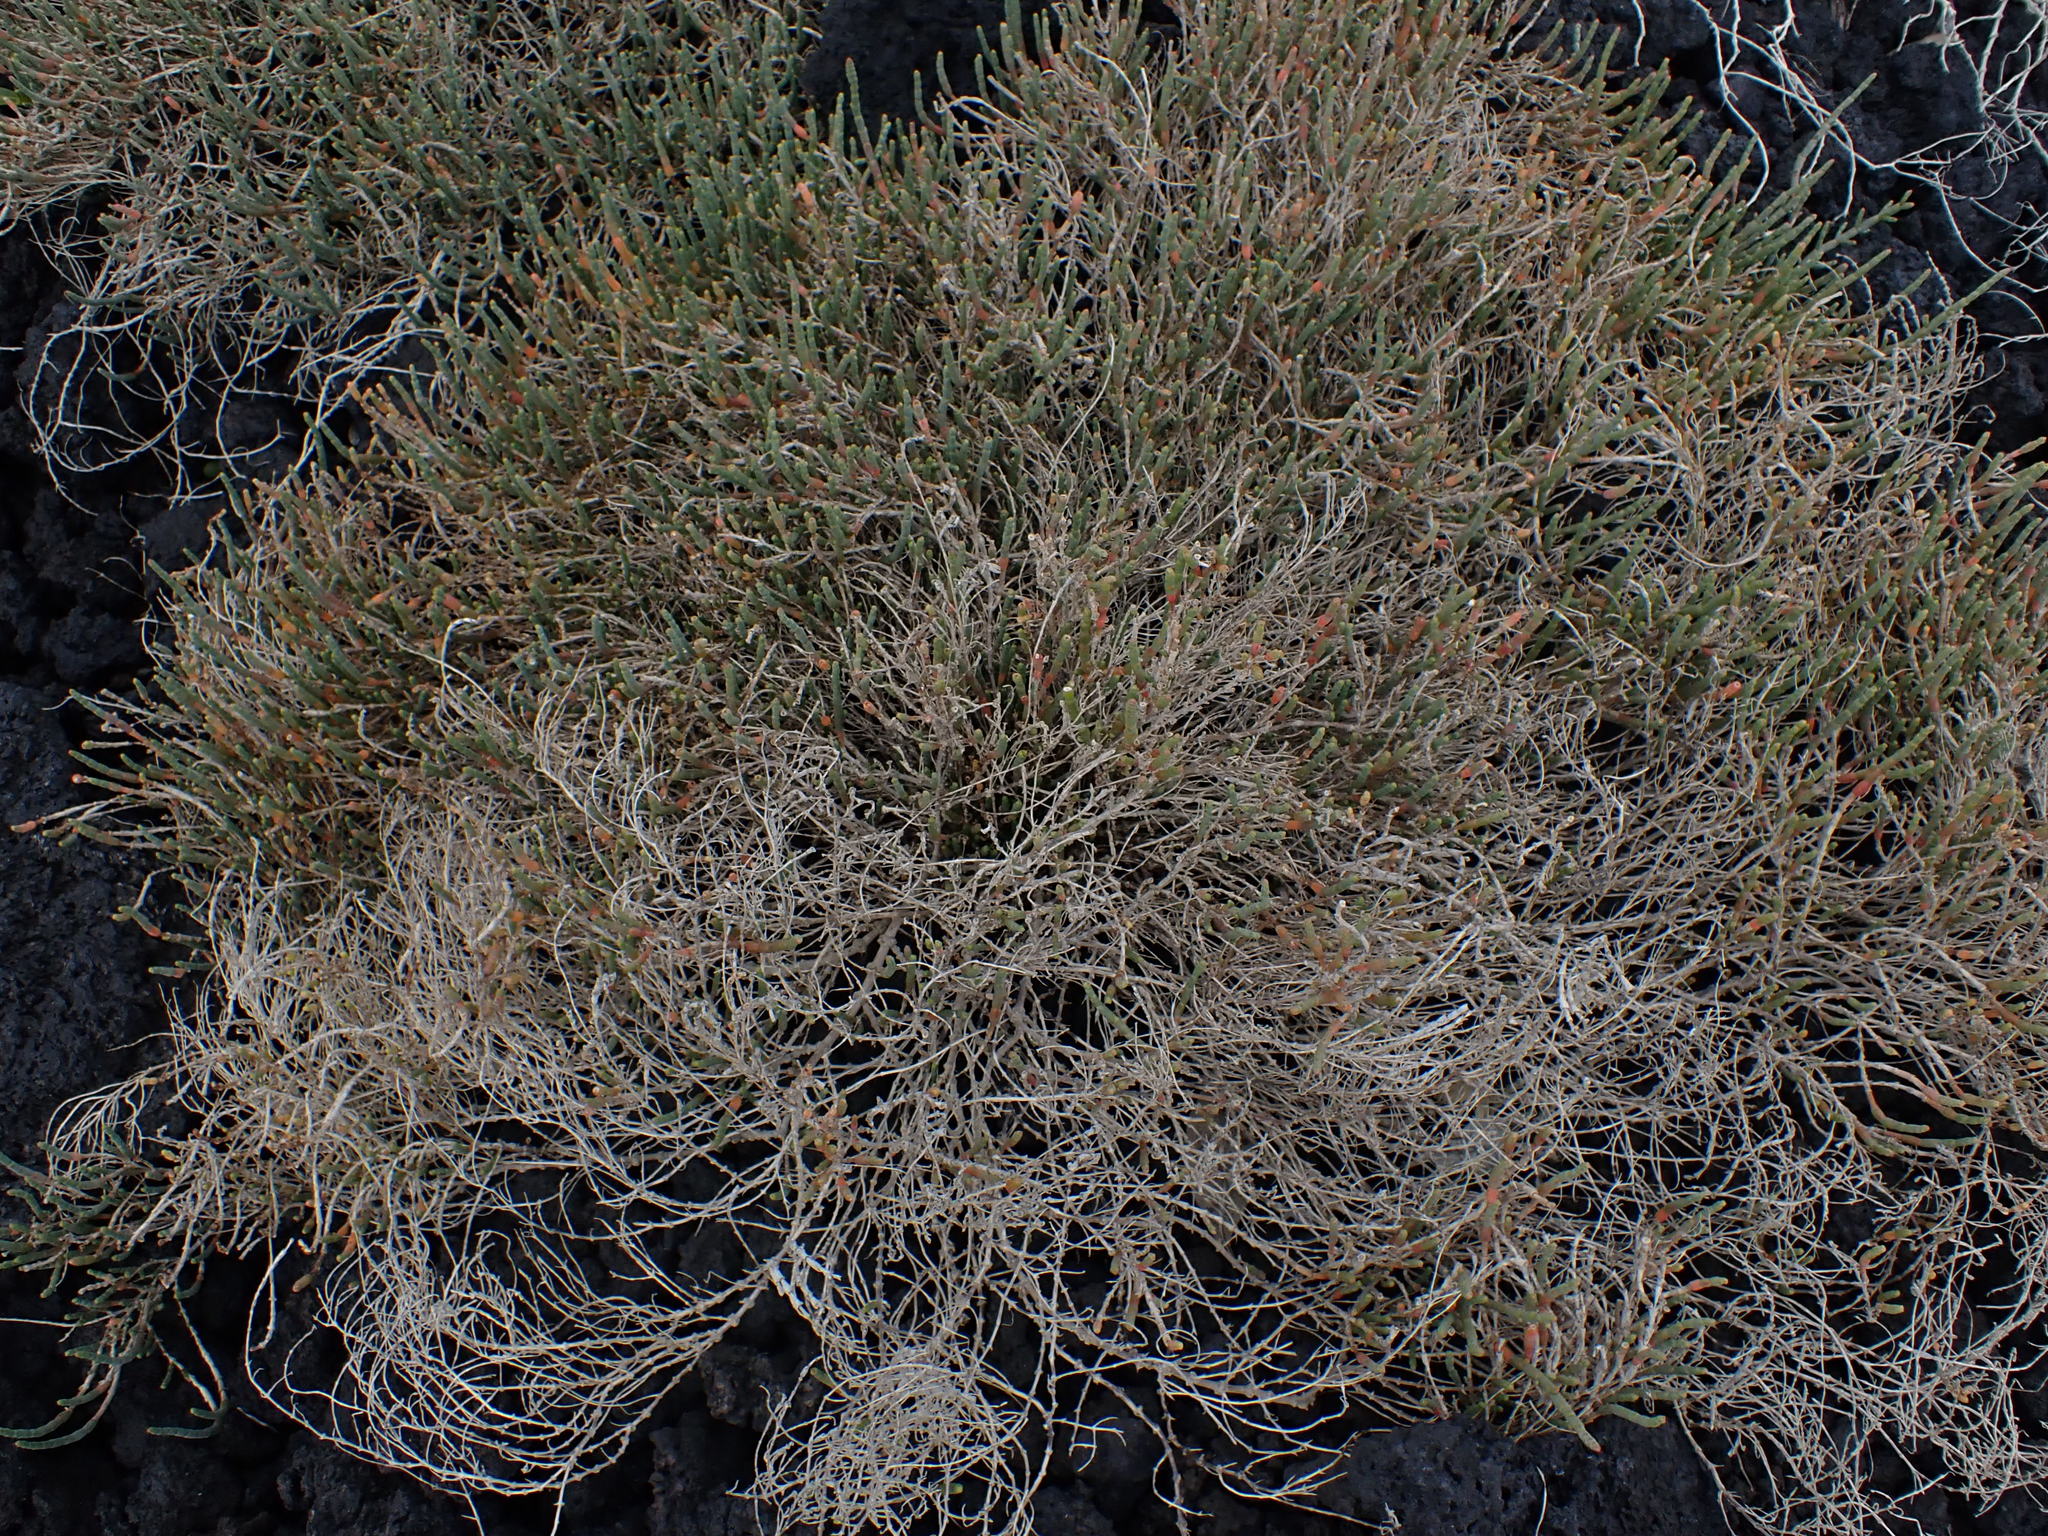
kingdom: Plantae
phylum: Tracheophyta
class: Magnoliopsida
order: Caryophyllales
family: Amaranthaceae
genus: Salicornia
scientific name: Salicornia quinqueflora
